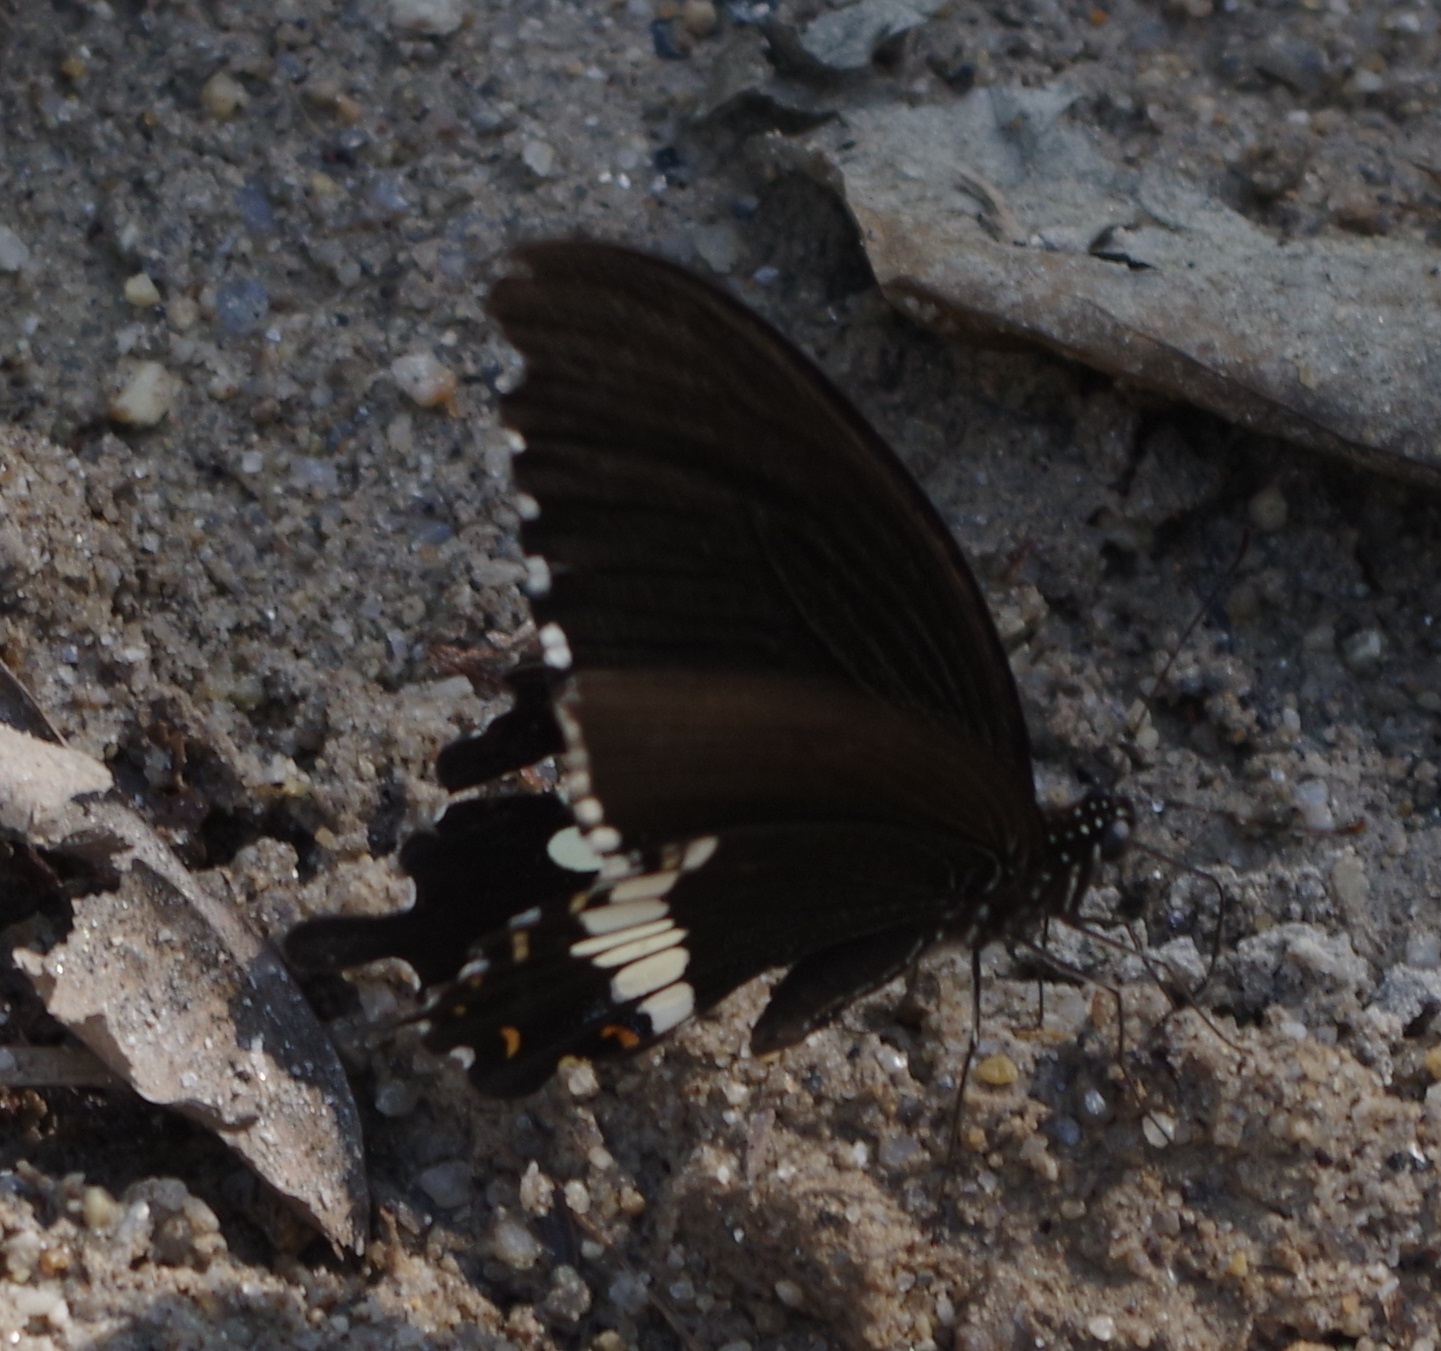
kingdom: Animalia
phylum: Arthropoda
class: Insecta
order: Lepidoptera
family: Papilionidae
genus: Papilio
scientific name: Papilio polytes
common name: Common mormon
